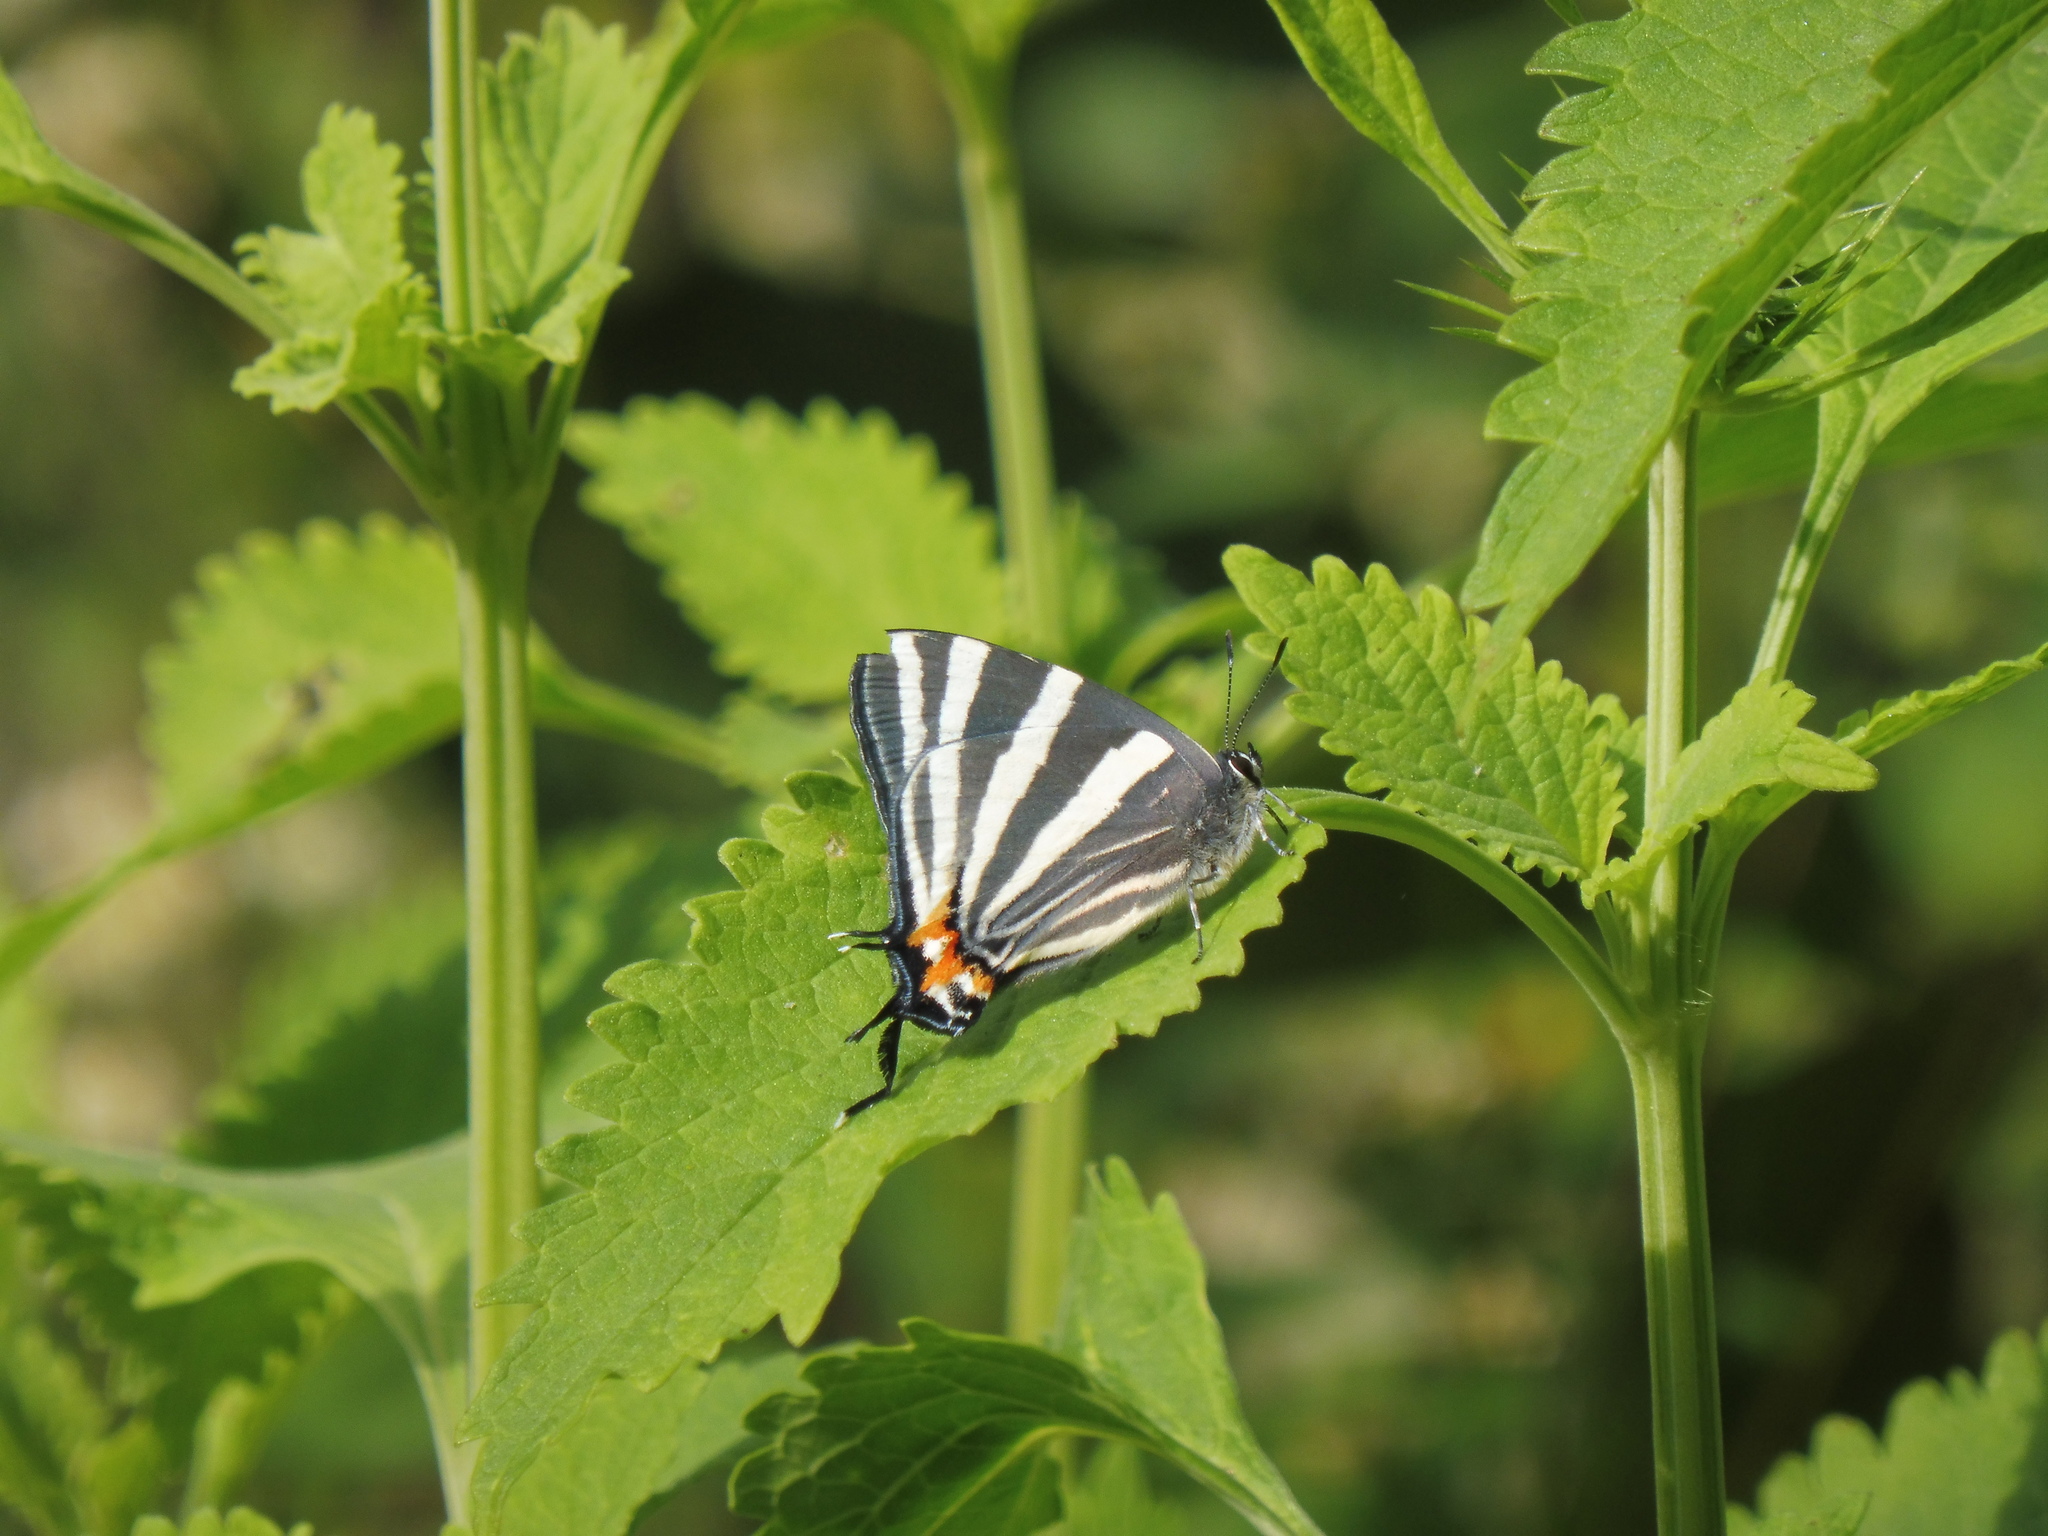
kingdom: Animalia
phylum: Arthropoda
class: Insecta
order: Lepidoptera
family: Lycaenidae
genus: Laothus
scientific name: Laothus
